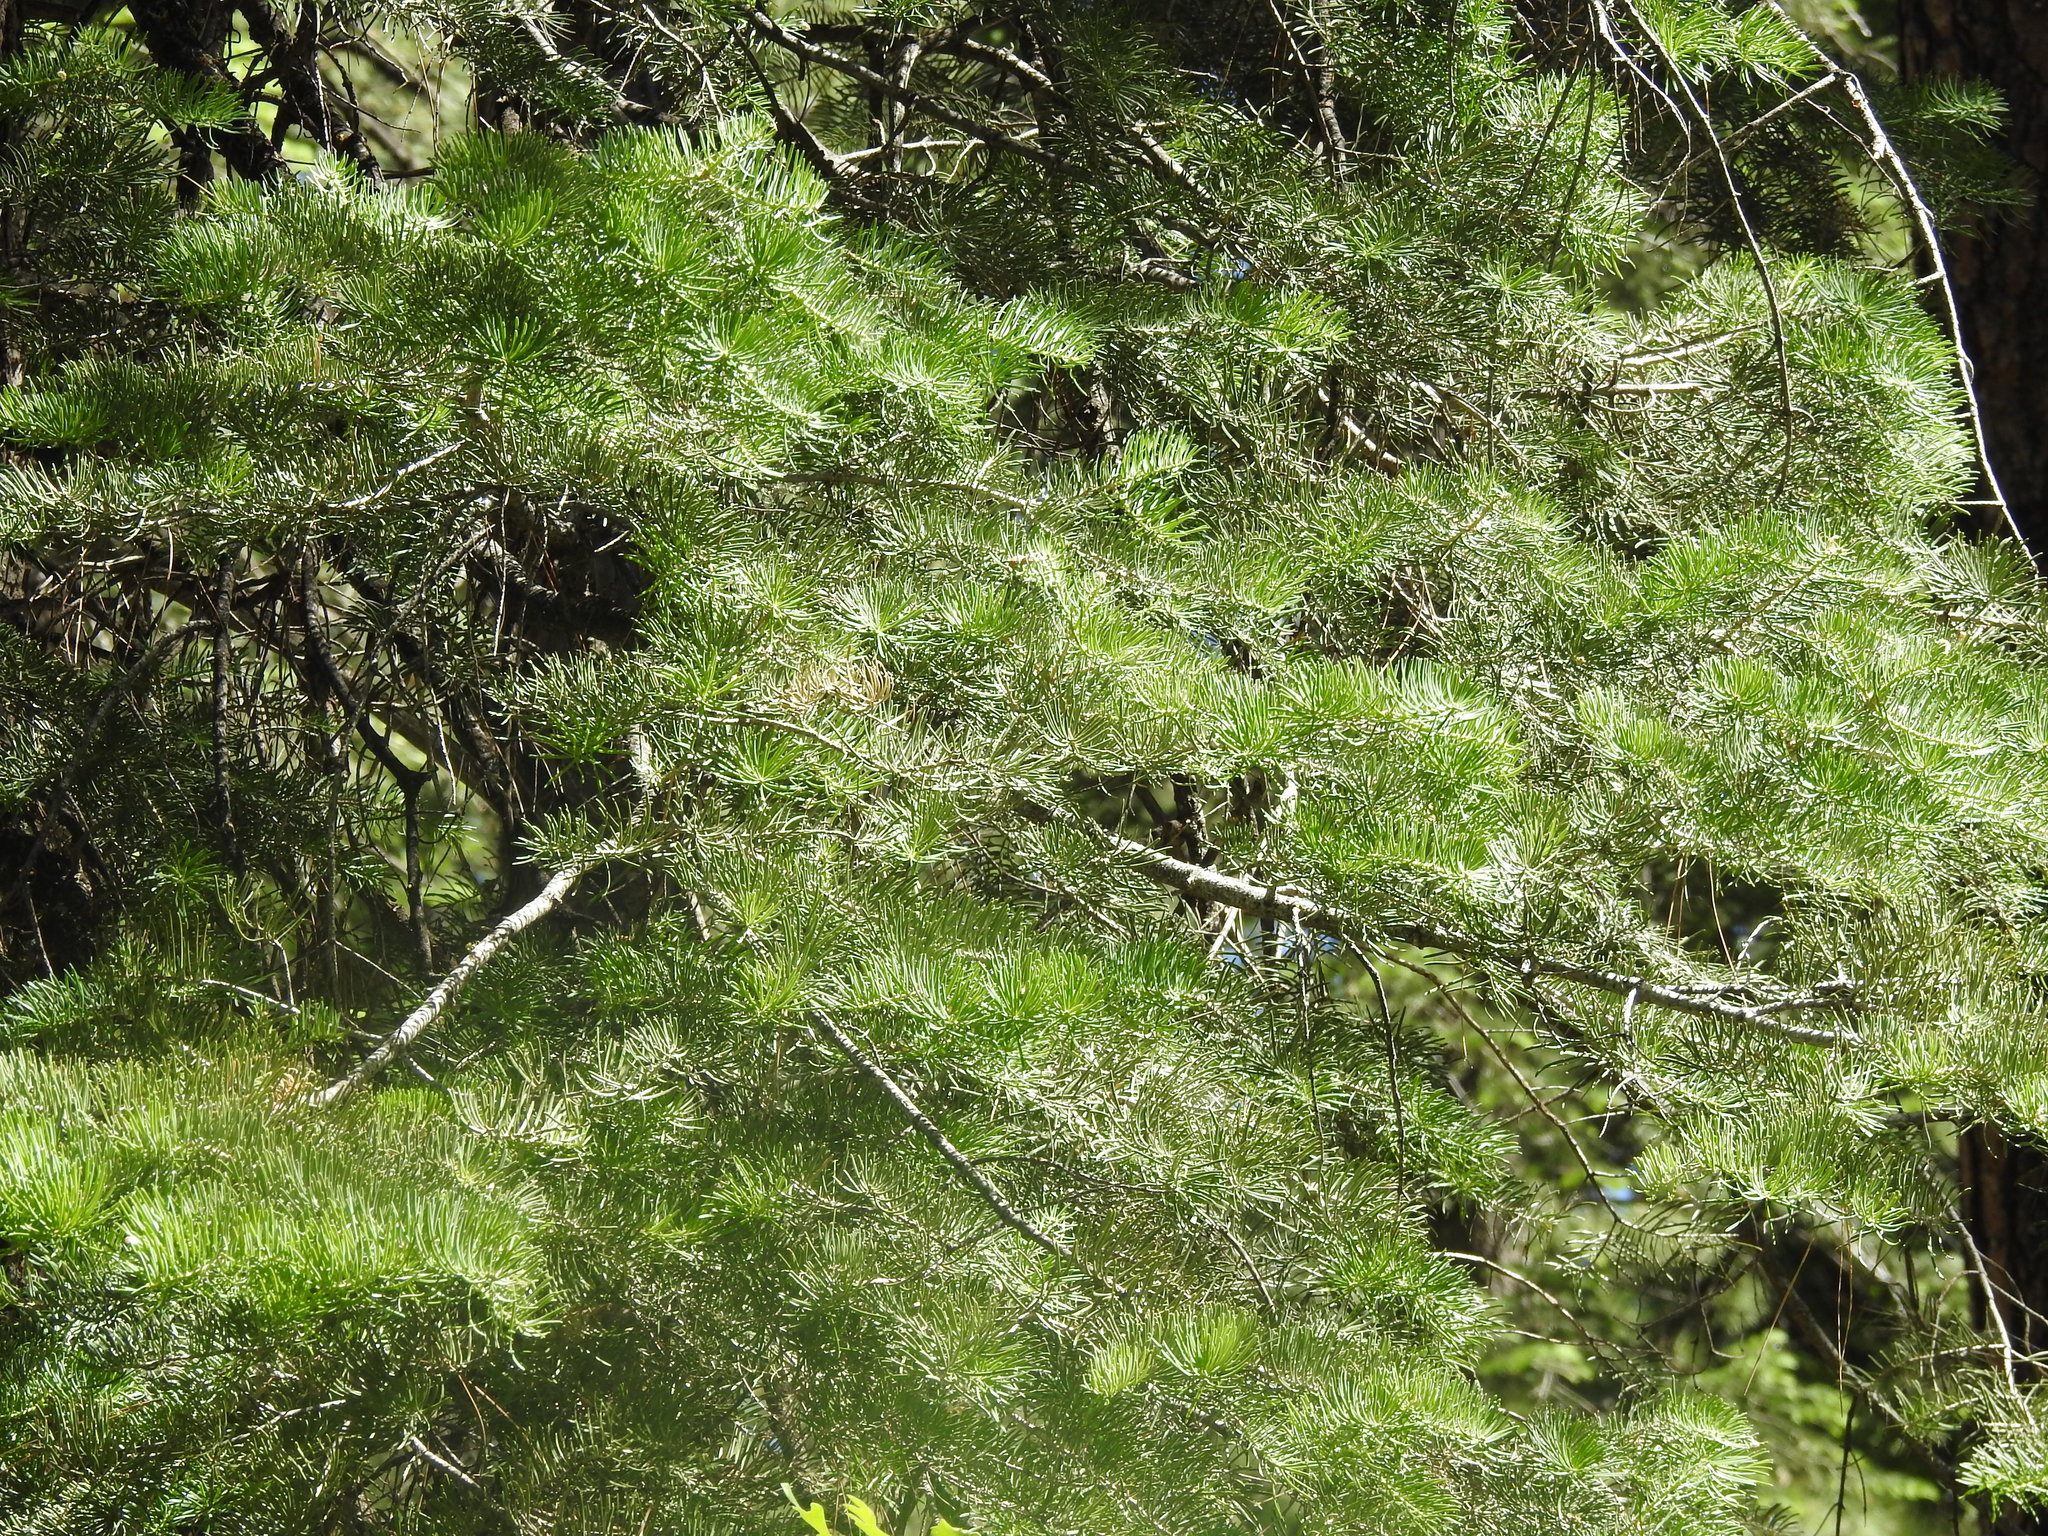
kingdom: Plantae
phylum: Tracheophyta
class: Pinopsida
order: Pinales
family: Pinaceae
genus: Abies
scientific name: Abies concolor
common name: Colorado fir
